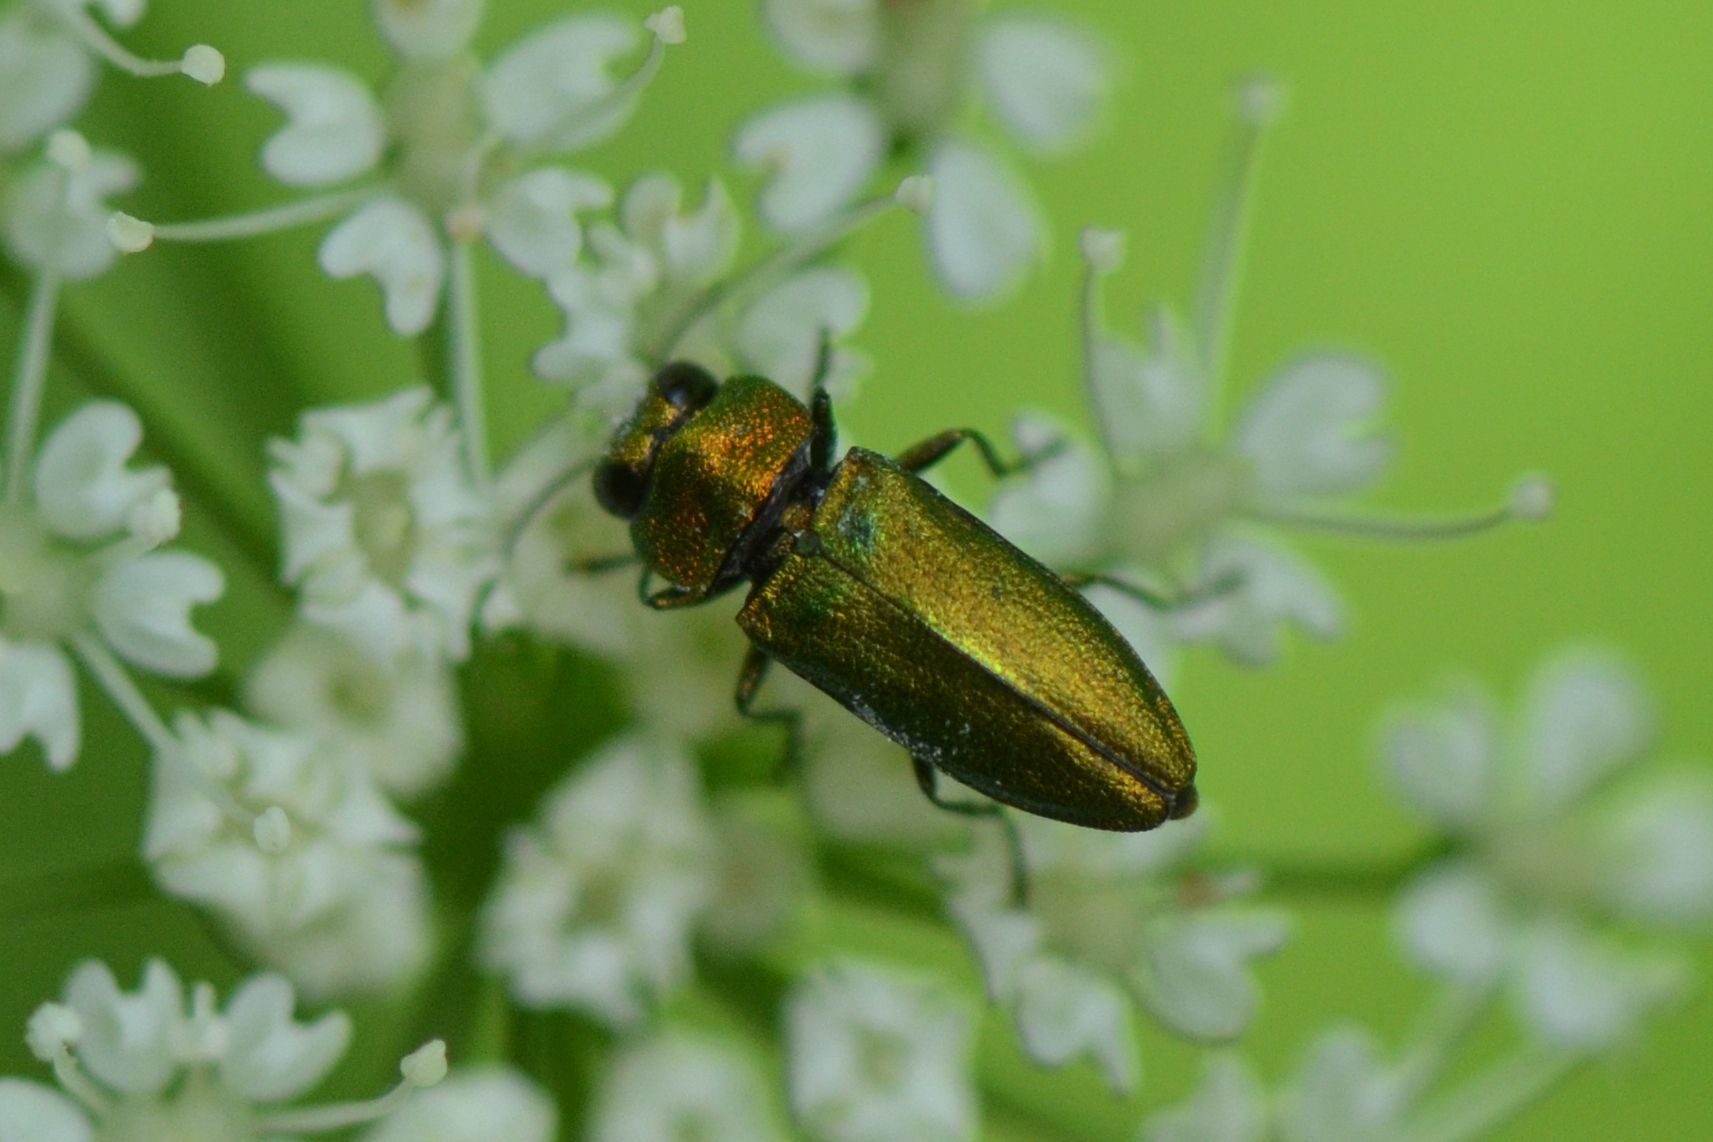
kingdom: Animalia
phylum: Arthropoda
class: Insecta
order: Coleoptera
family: Buprestidae
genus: Anthaxia
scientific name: Anthaxia nitidula
